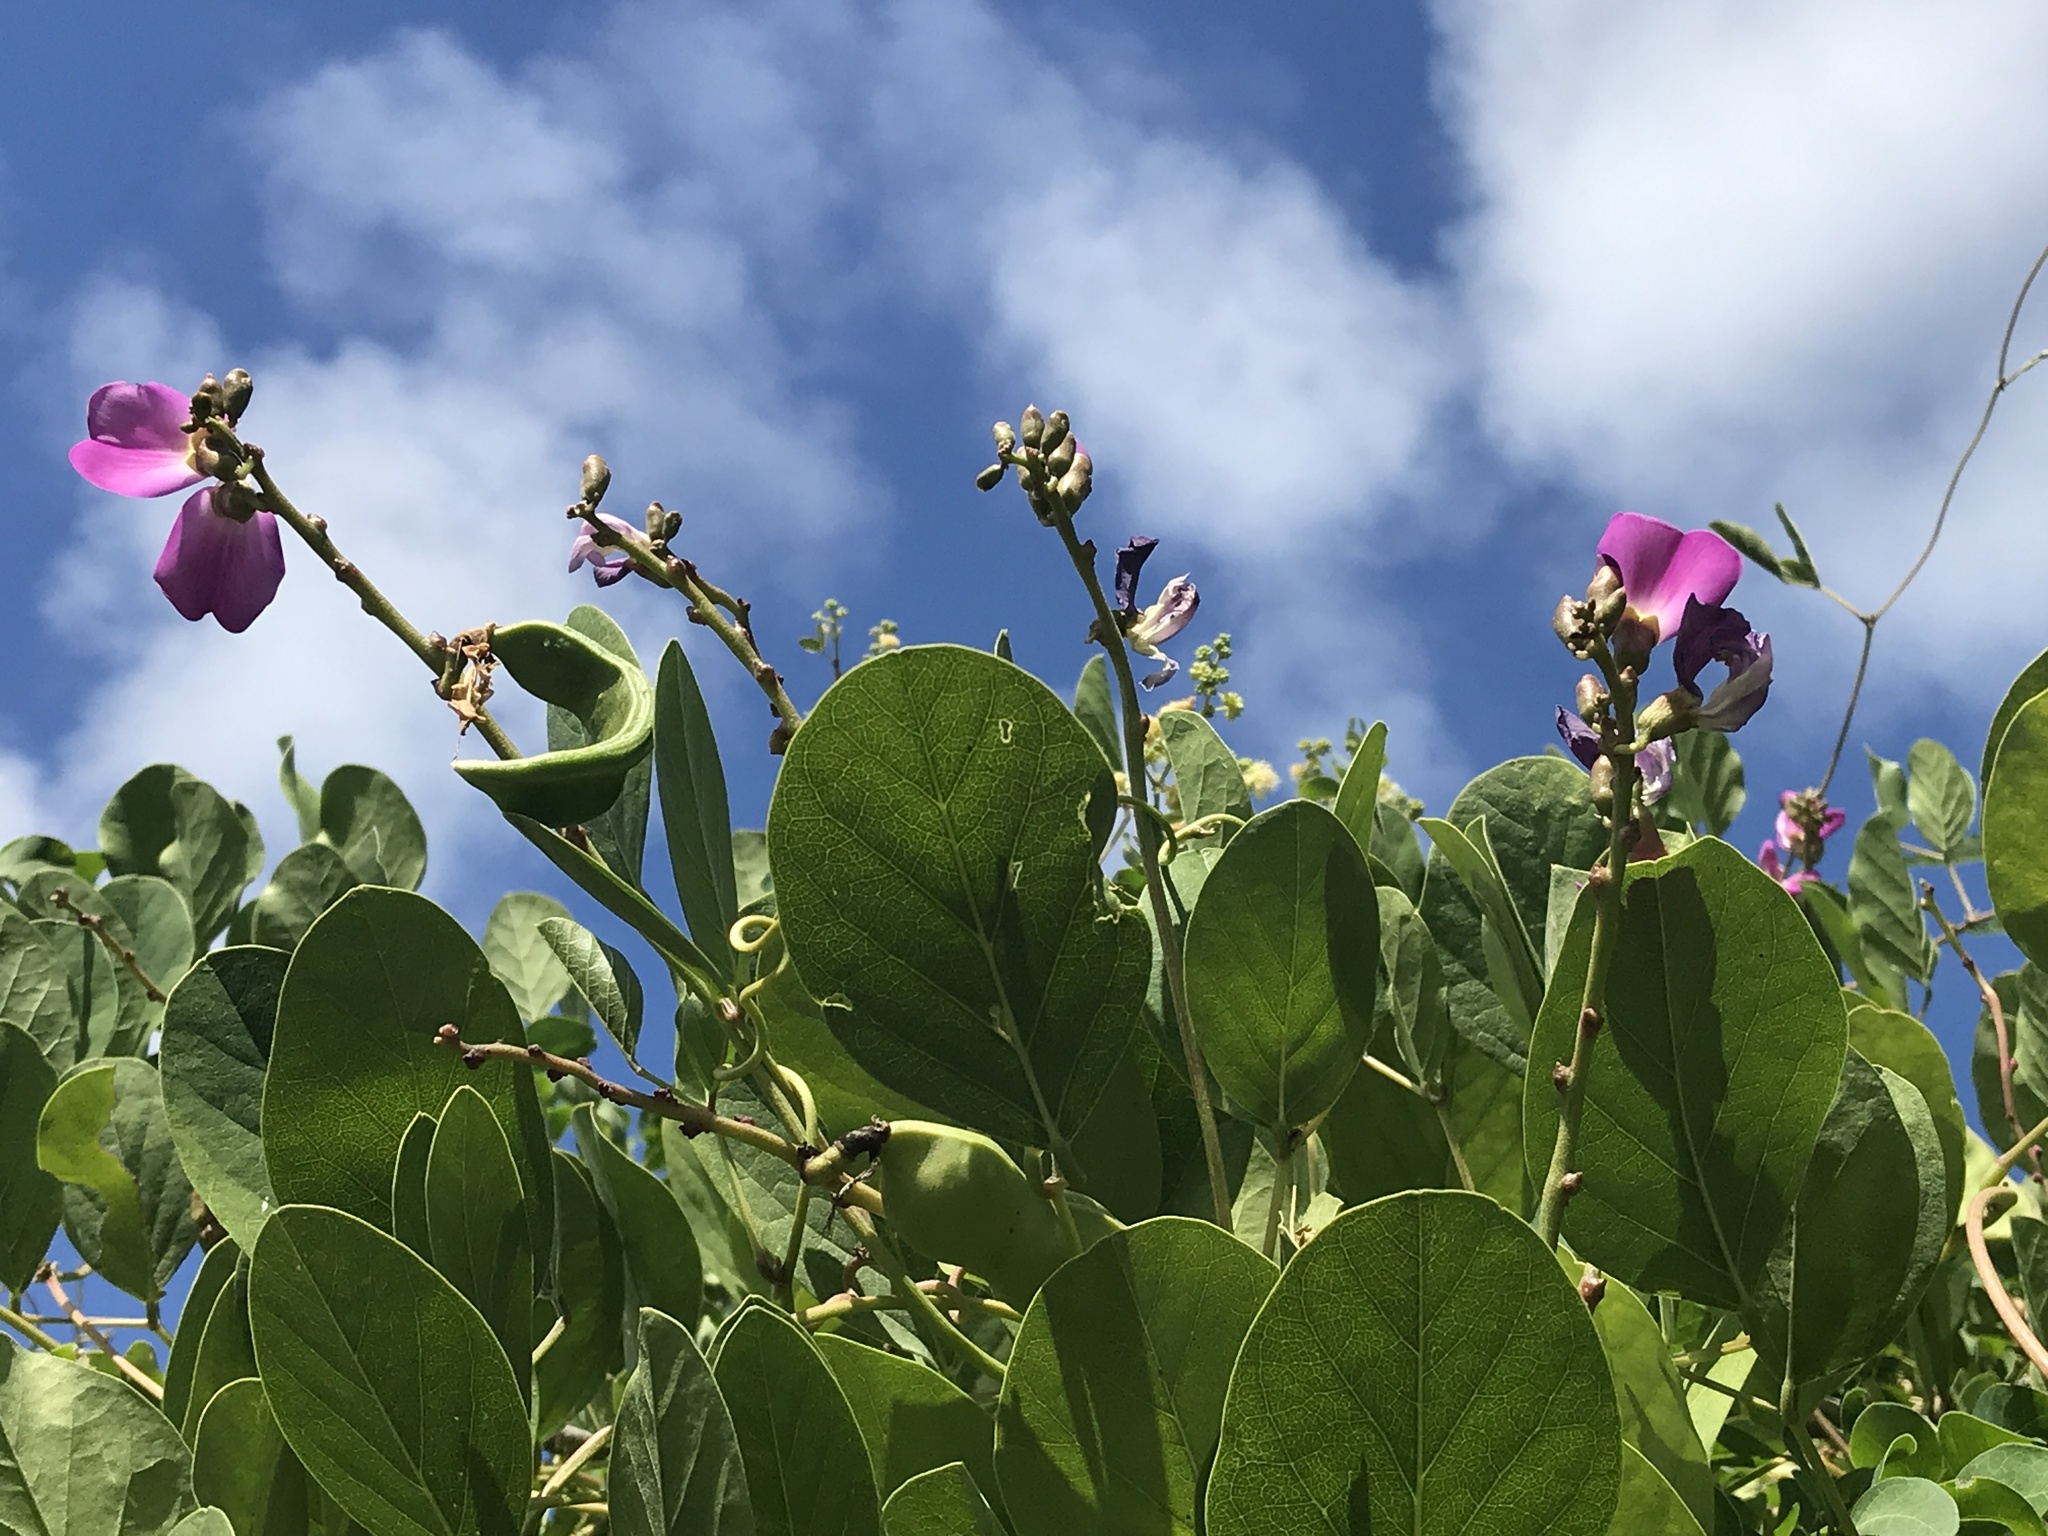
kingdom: Plantae
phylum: Tracheophyta
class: Magnoliopsida
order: Fabales
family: Fabaceae
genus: Canavalia
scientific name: Canavalia rosea
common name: Beach-bean
